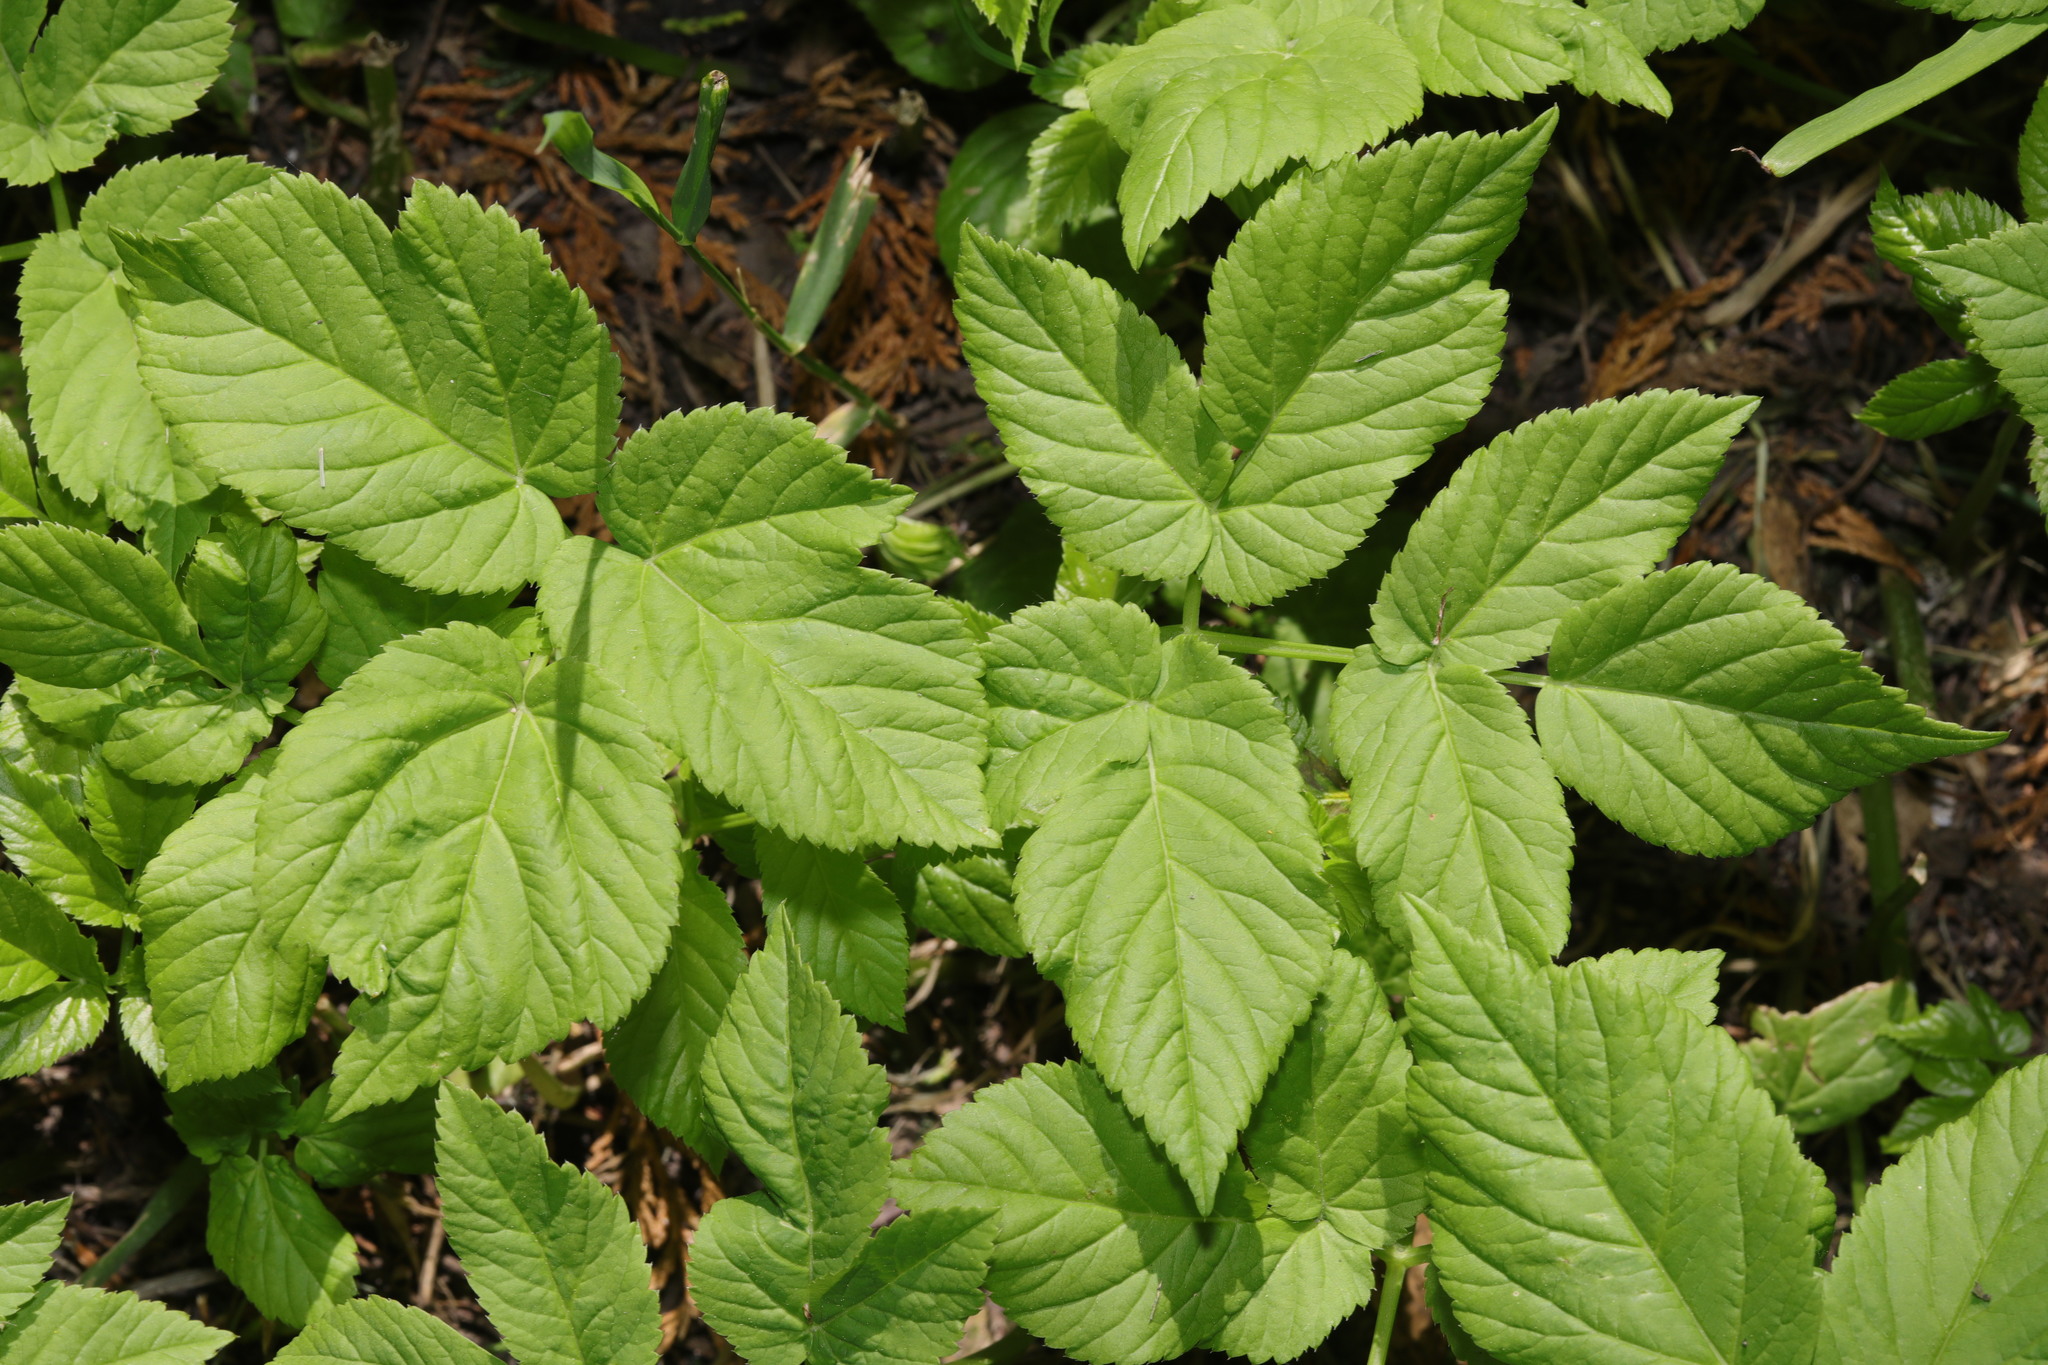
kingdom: Plantae
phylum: Tracheophyta
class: Magnoliopsida
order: Apiales
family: Apiaceae
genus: Aegopodium
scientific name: Aegopodium podagraria
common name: Ground-elder
